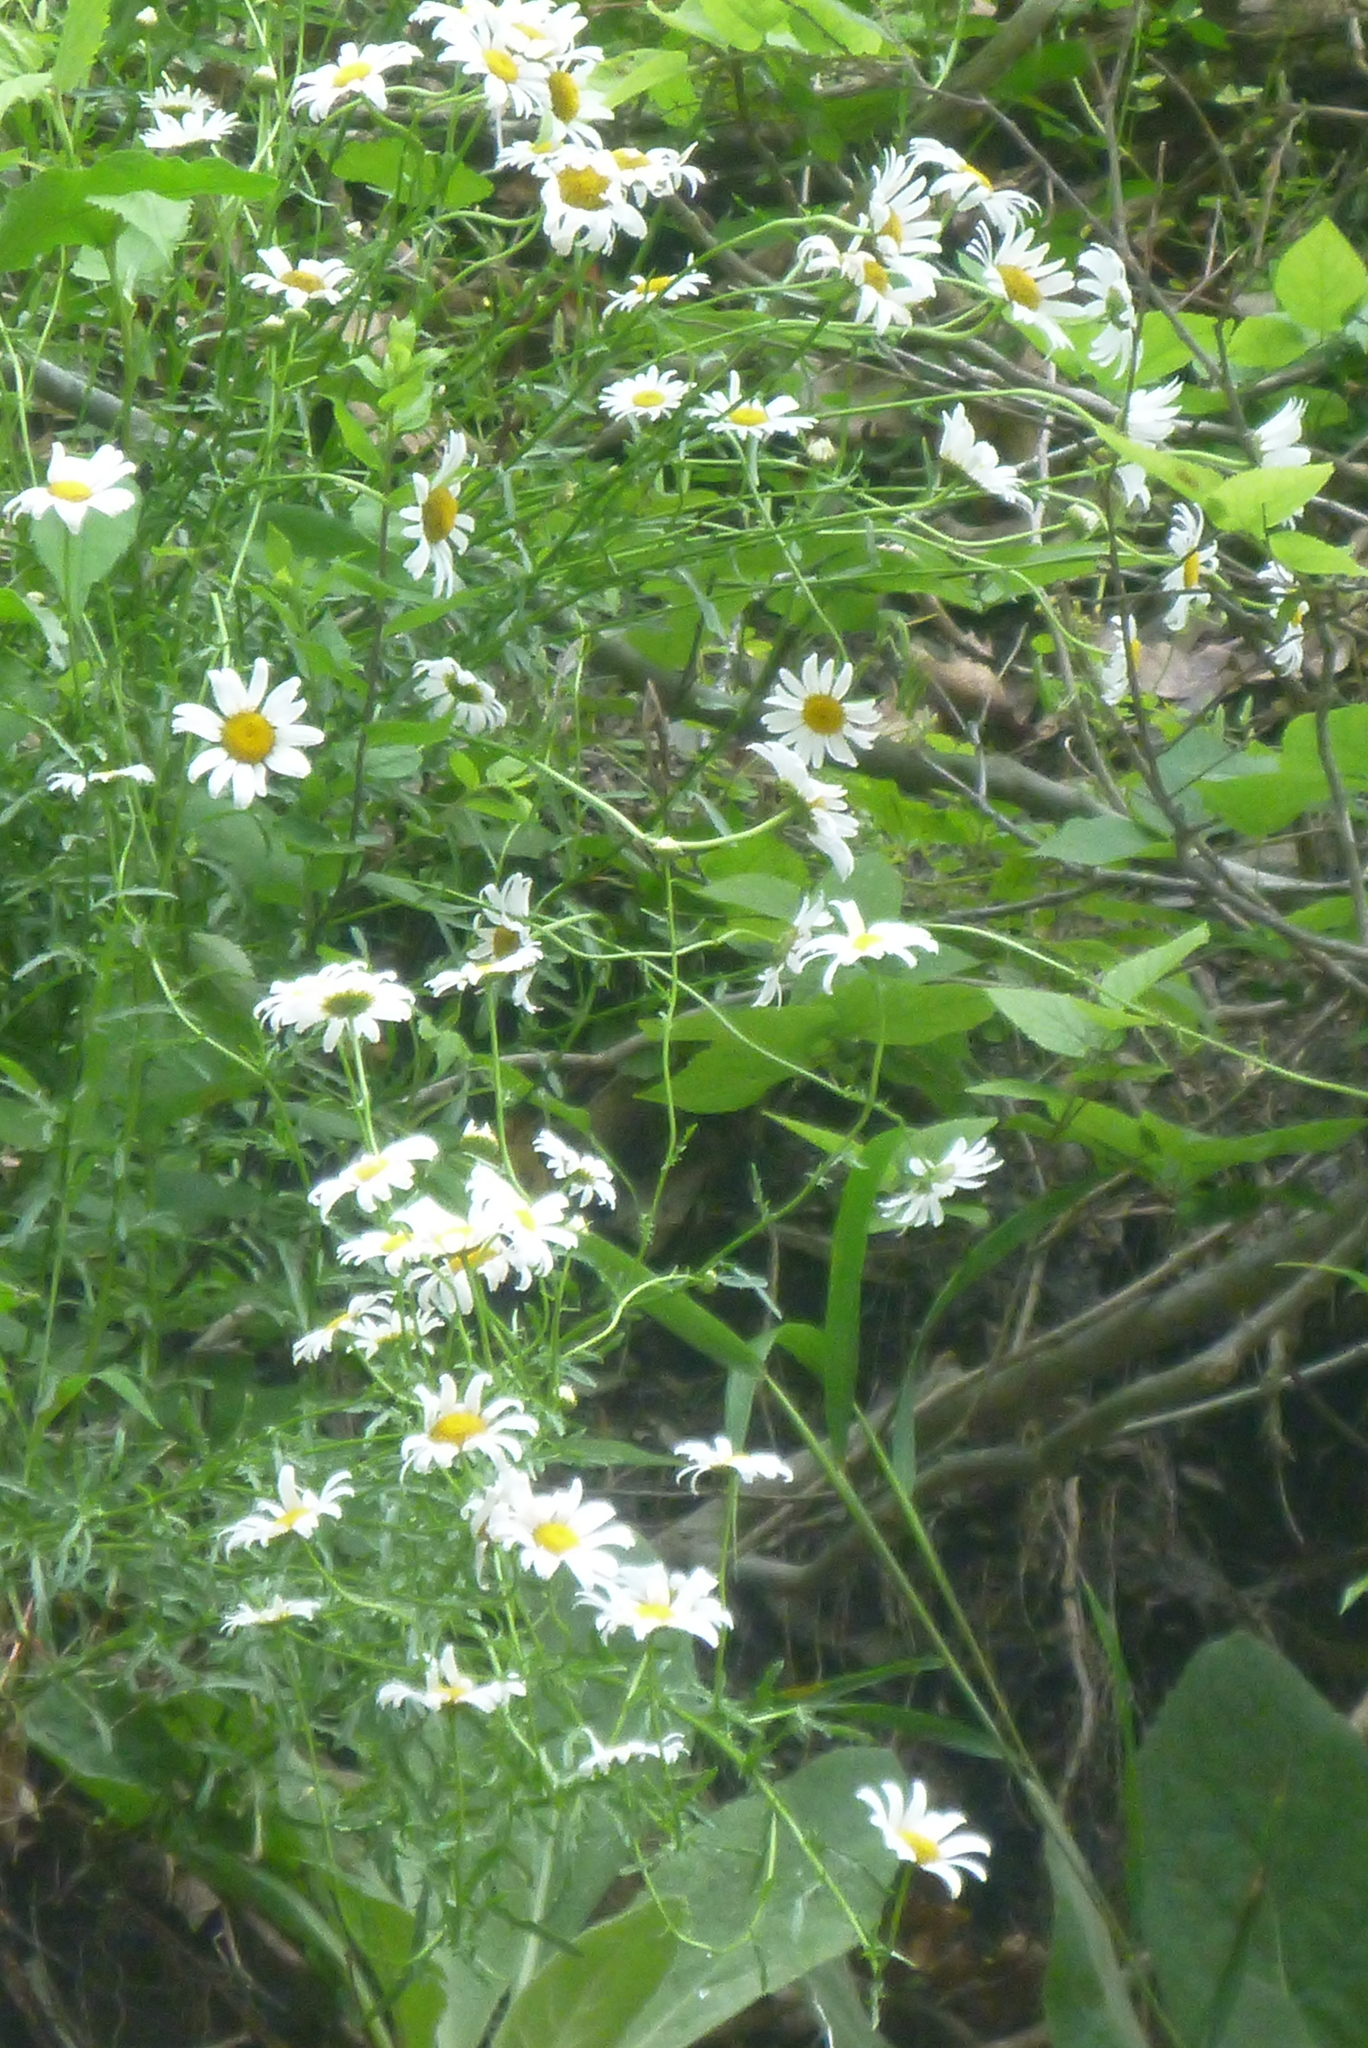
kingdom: Plantae
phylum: Tracheophyta
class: Magnoliopsida
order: Asterales
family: Asteraceae
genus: Leucanthemum
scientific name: Leucanthemum vulgare
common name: Oxeye daisy
